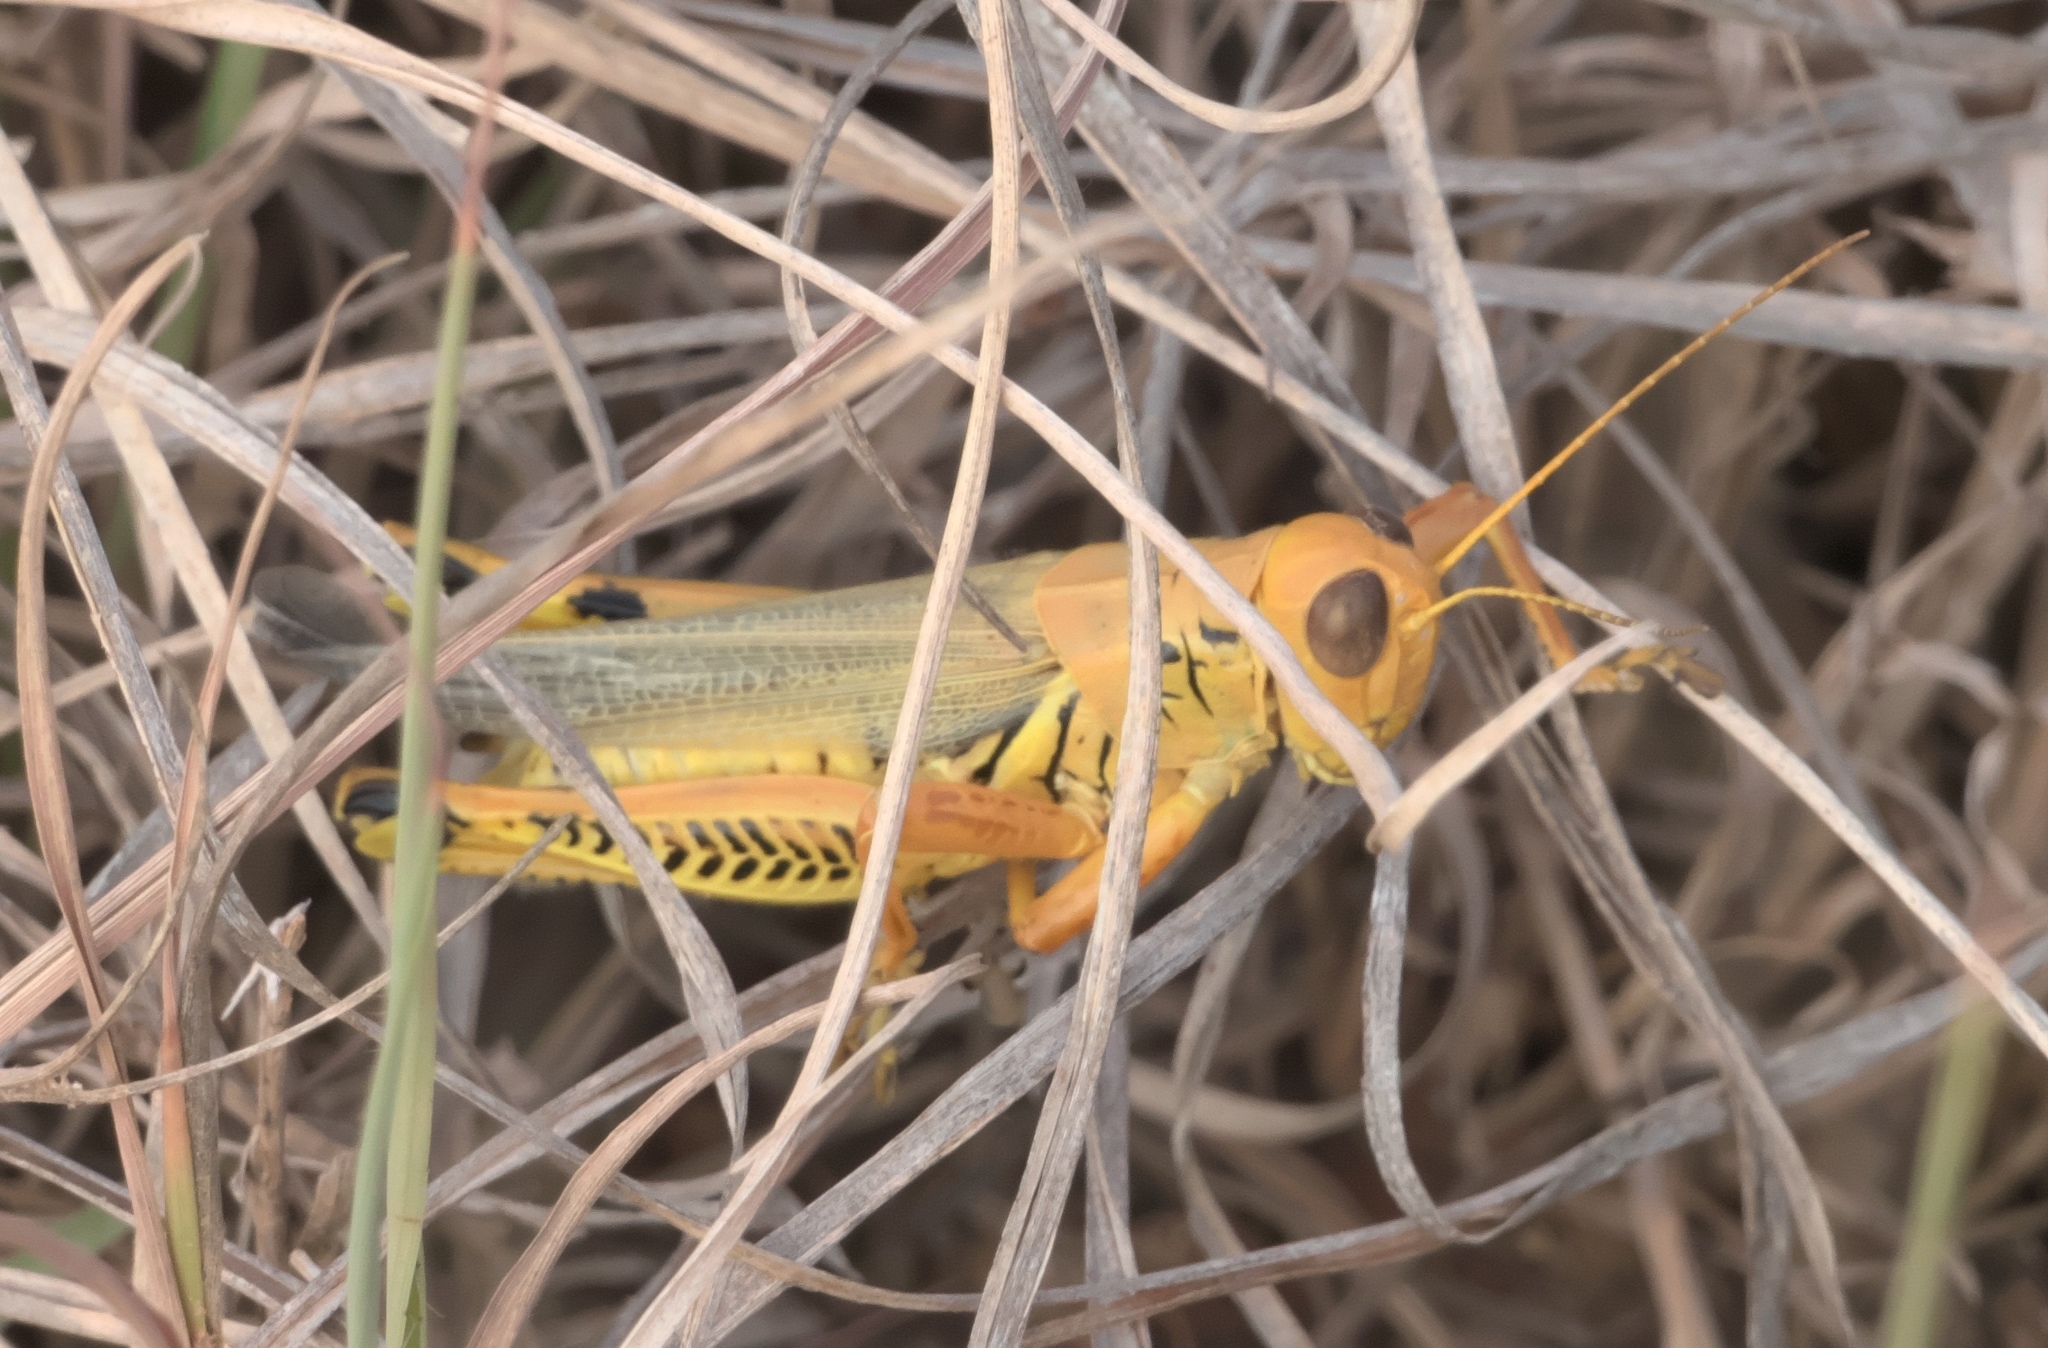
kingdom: Animalia
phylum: Arthropoda
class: Insecta
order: Orthoptera
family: Acrididae
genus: Melanoplus
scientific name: Melanoplus differentialis
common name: Differential grasshopper
